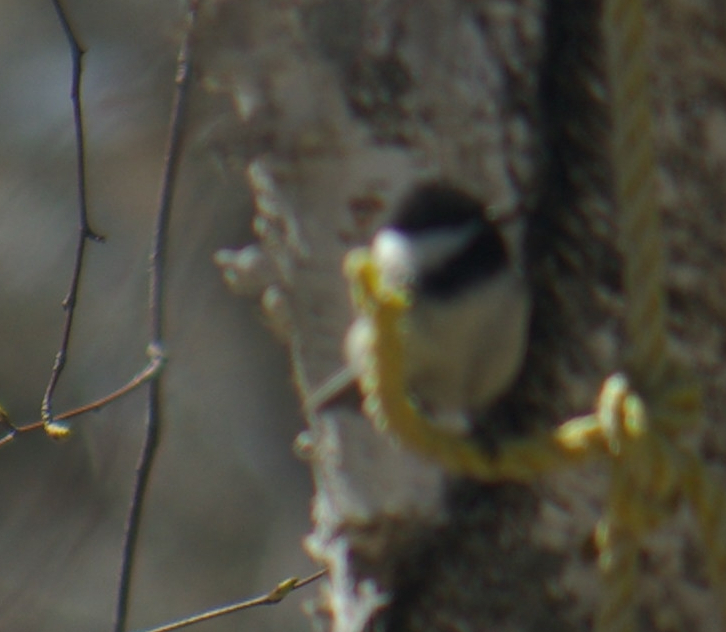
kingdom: Animalia
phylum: Chordata
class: Aves
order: Passeriformes
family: Paridae
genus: Poecile
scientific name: Poecile atricapillus
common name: Black-capped chickadee
